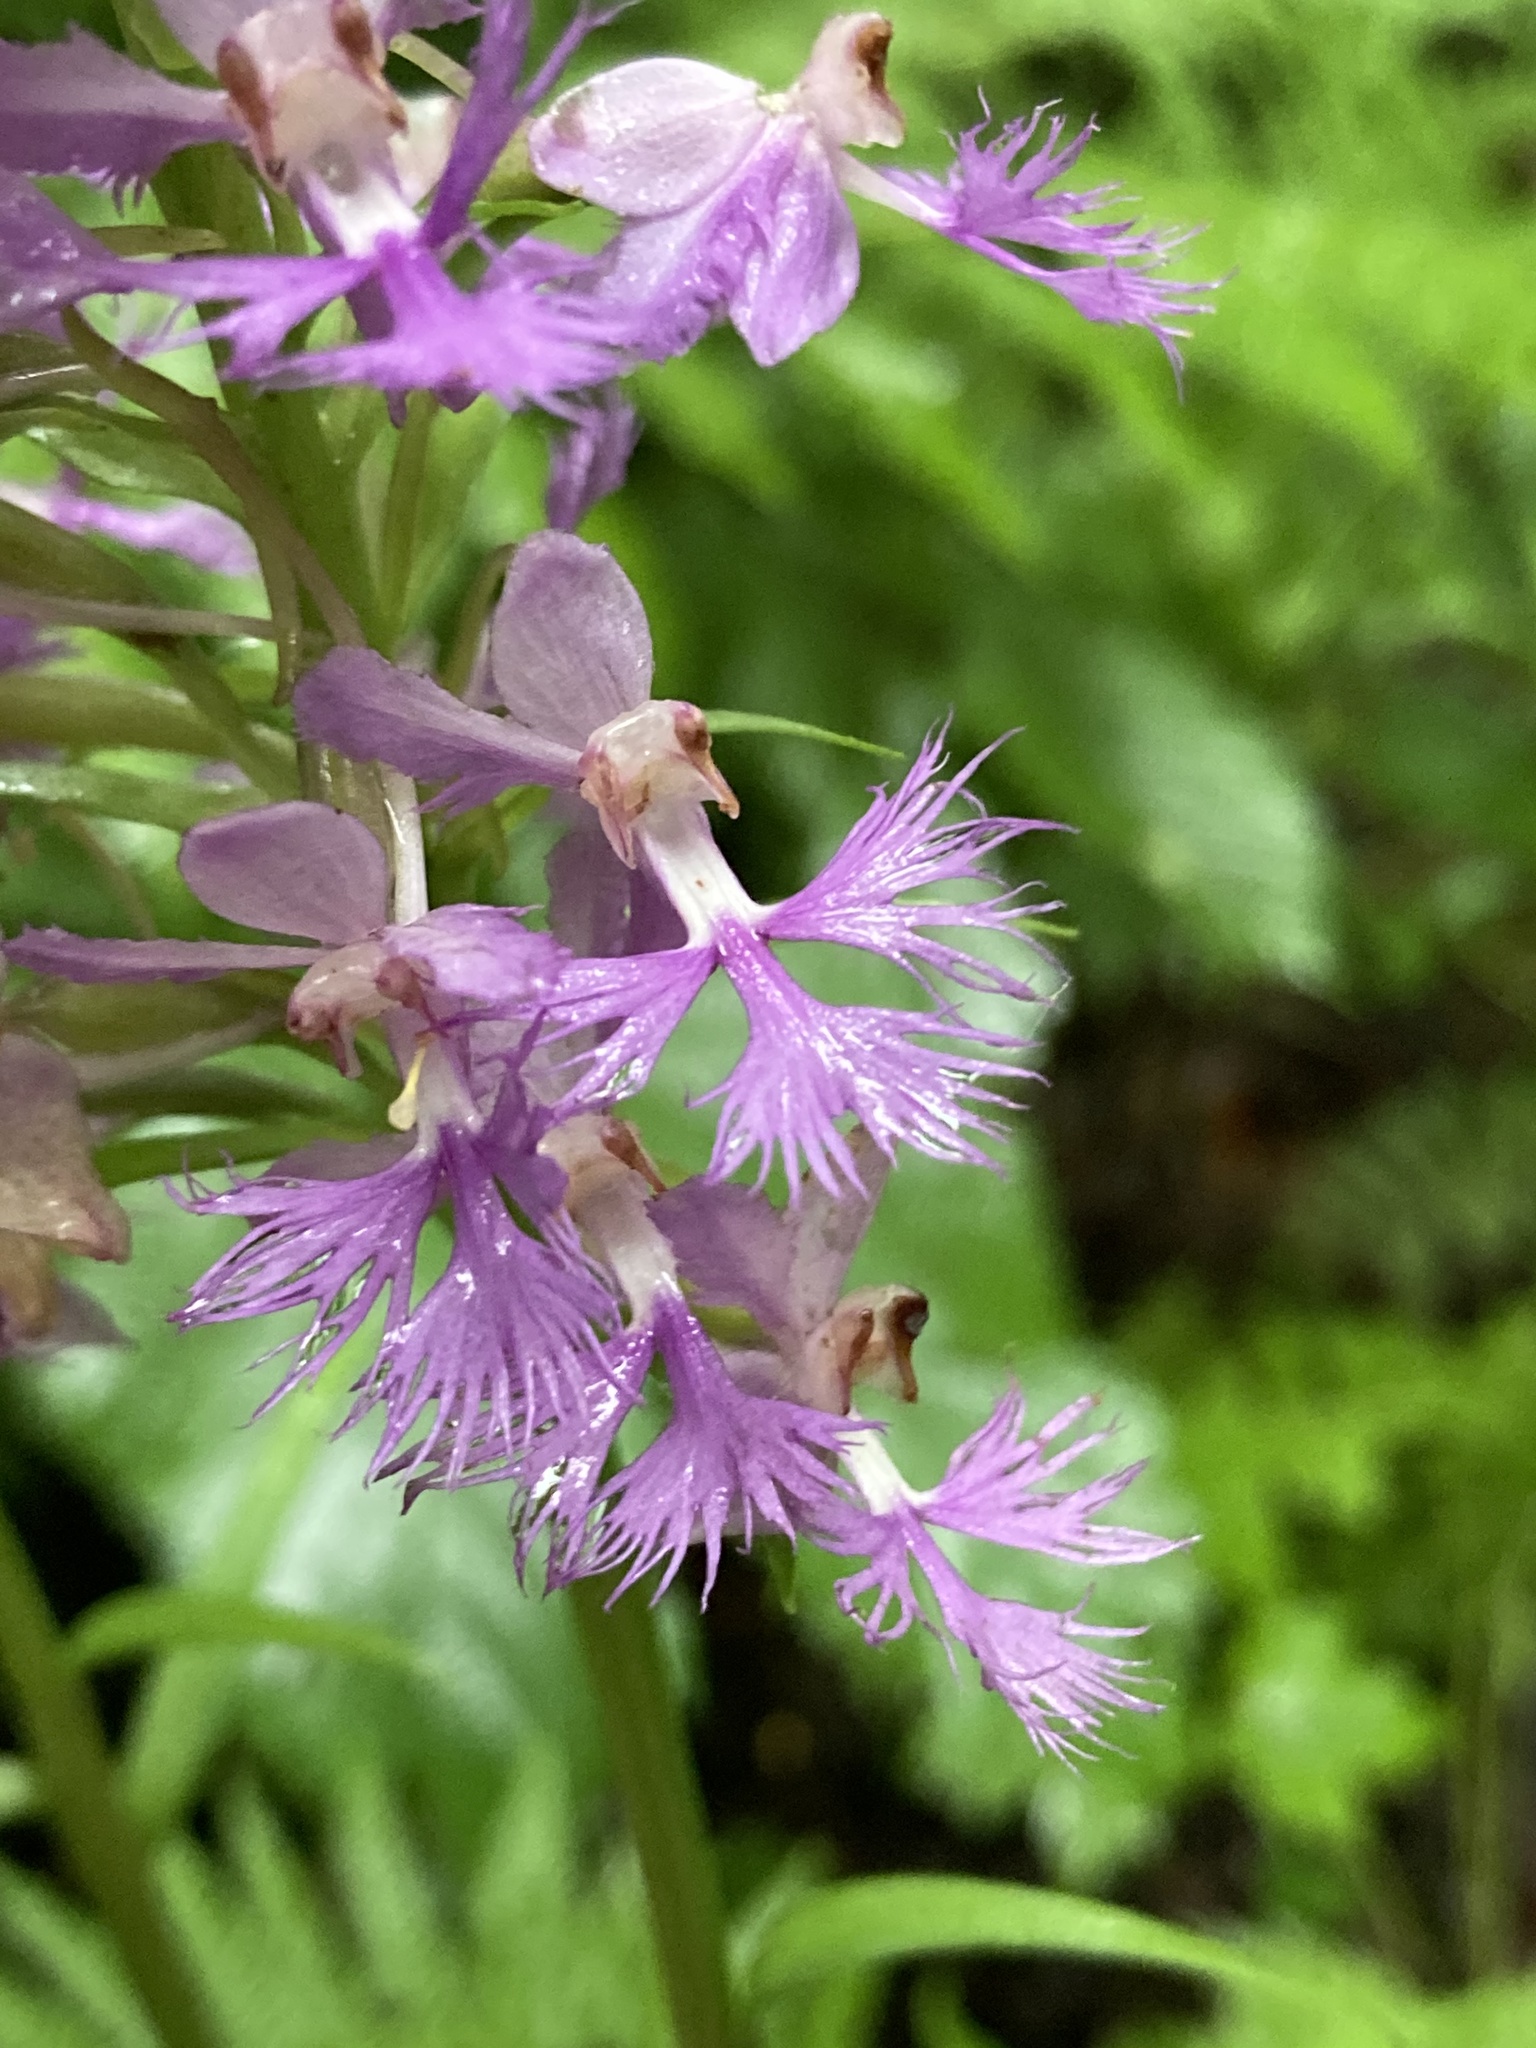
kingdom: Plantae
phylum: Tracheophyta
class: Liliopsida
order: Asparagales
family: Orchidaceae
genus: Platanthera
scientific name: Platanthera grandiflora
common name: Greater purple fringed orchid
